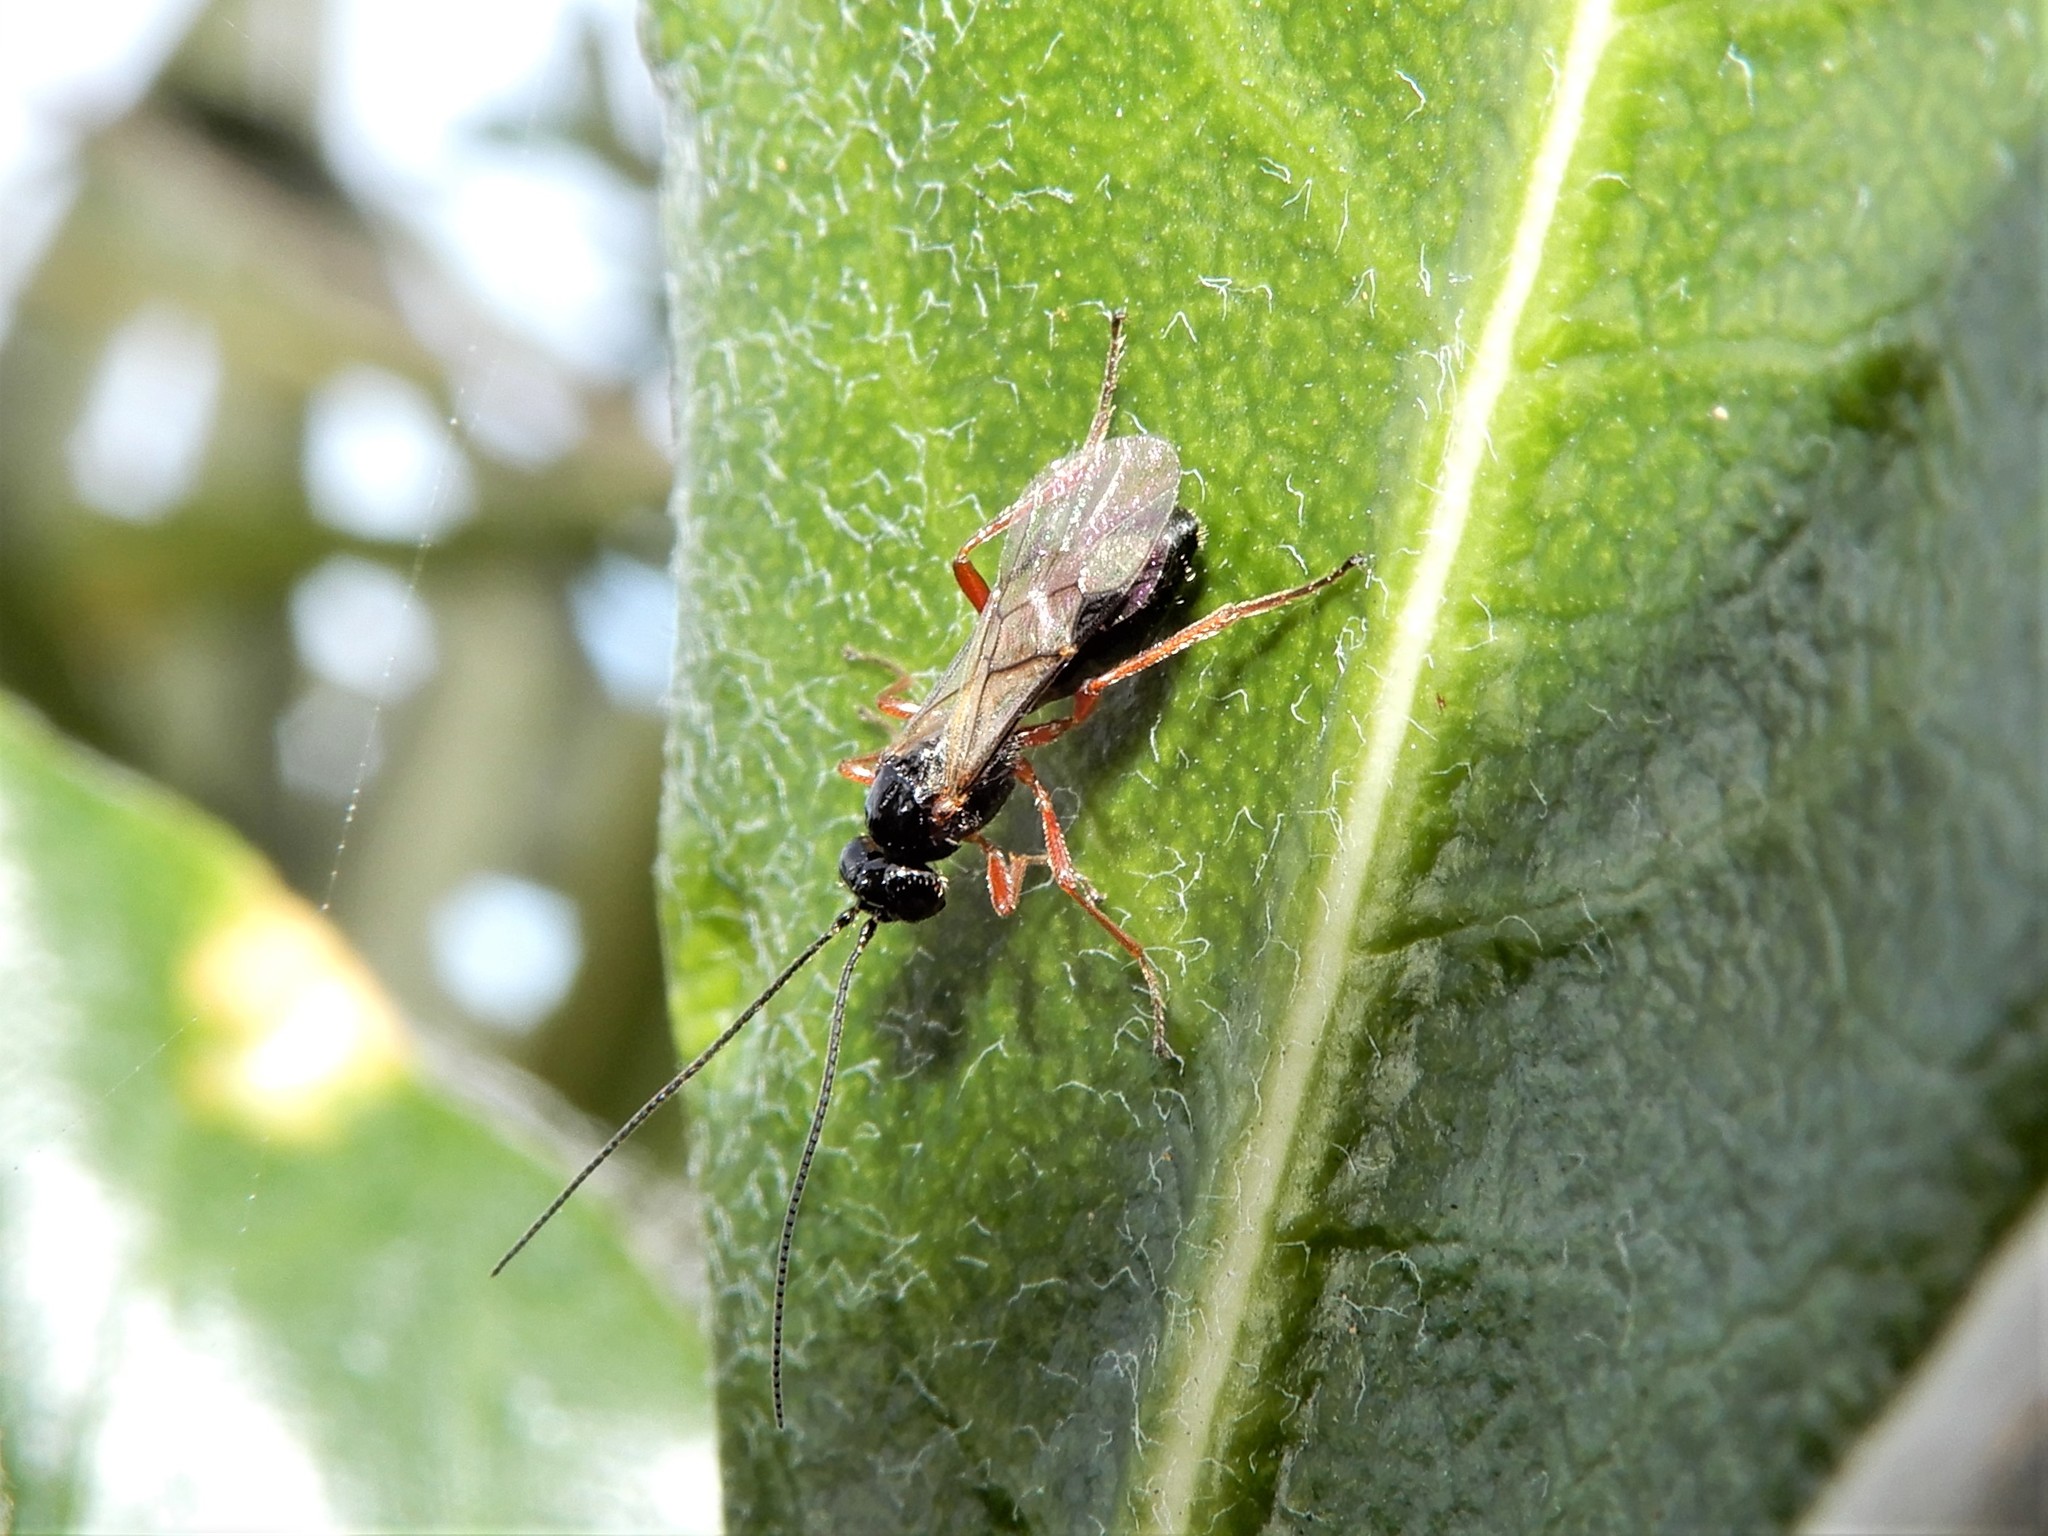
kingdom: Animalia
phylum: Arthropoda
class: Insecta
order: Hymenoptera
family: Braconidae
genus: Alysia
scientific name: Alysia manducator
